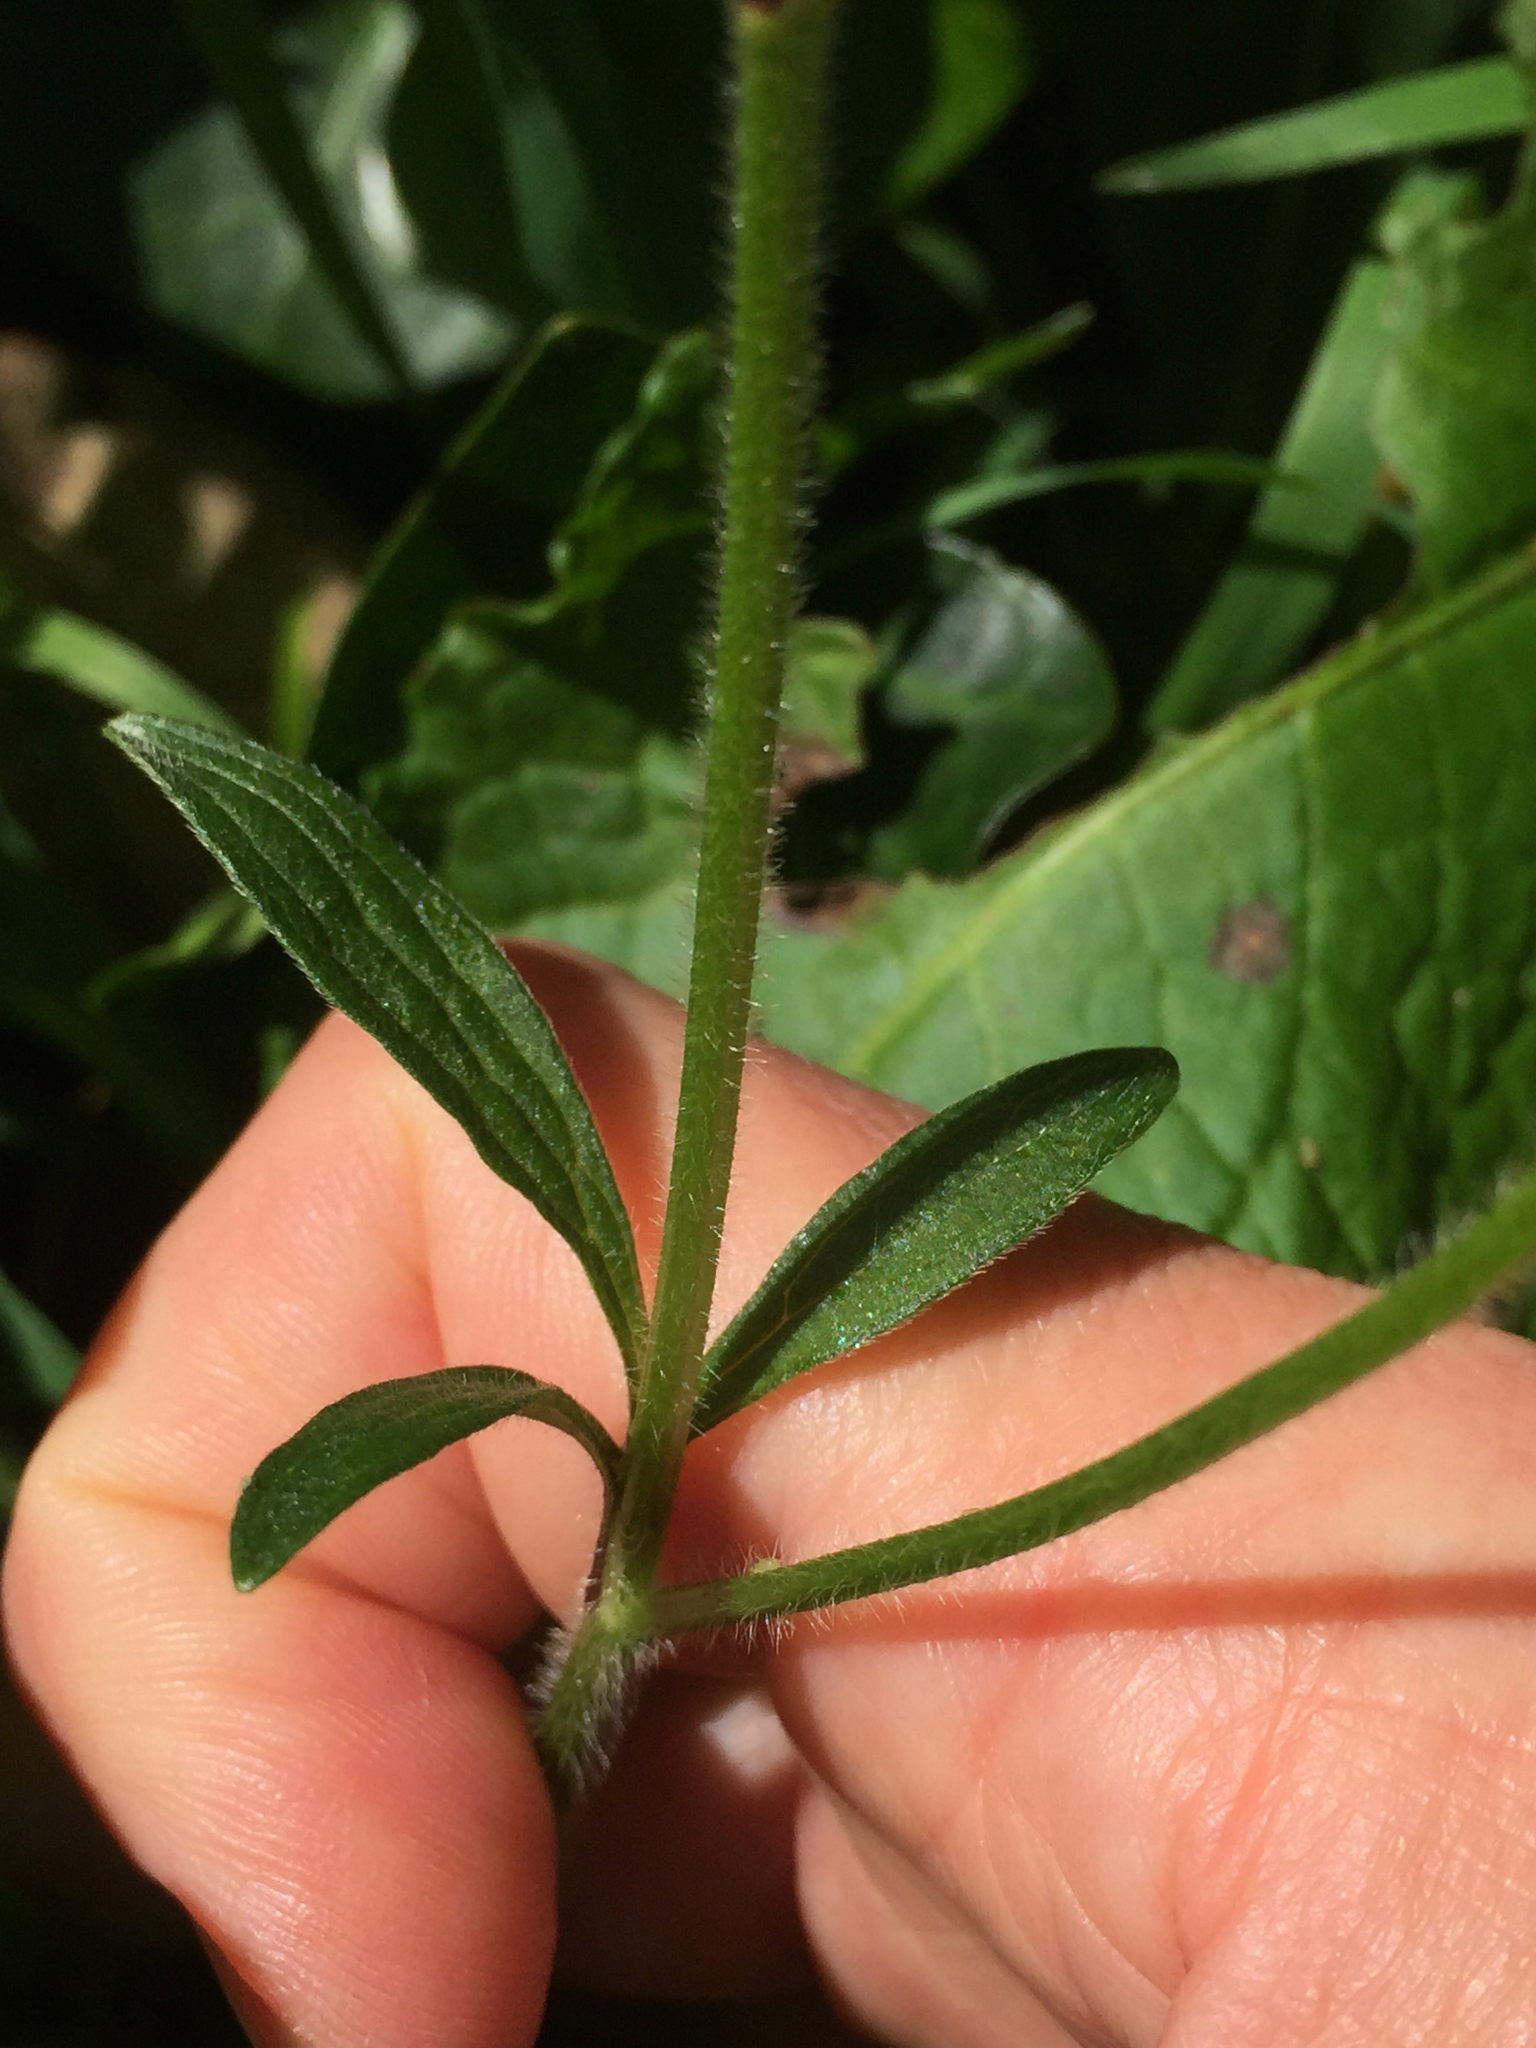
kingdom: Plantae
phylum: Tracheophyta
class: Magnoliopsida
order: Ranunculales
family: Ranunculaceae
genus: Ranunculus
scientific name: Ranunculus californicus
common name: California buttercup
